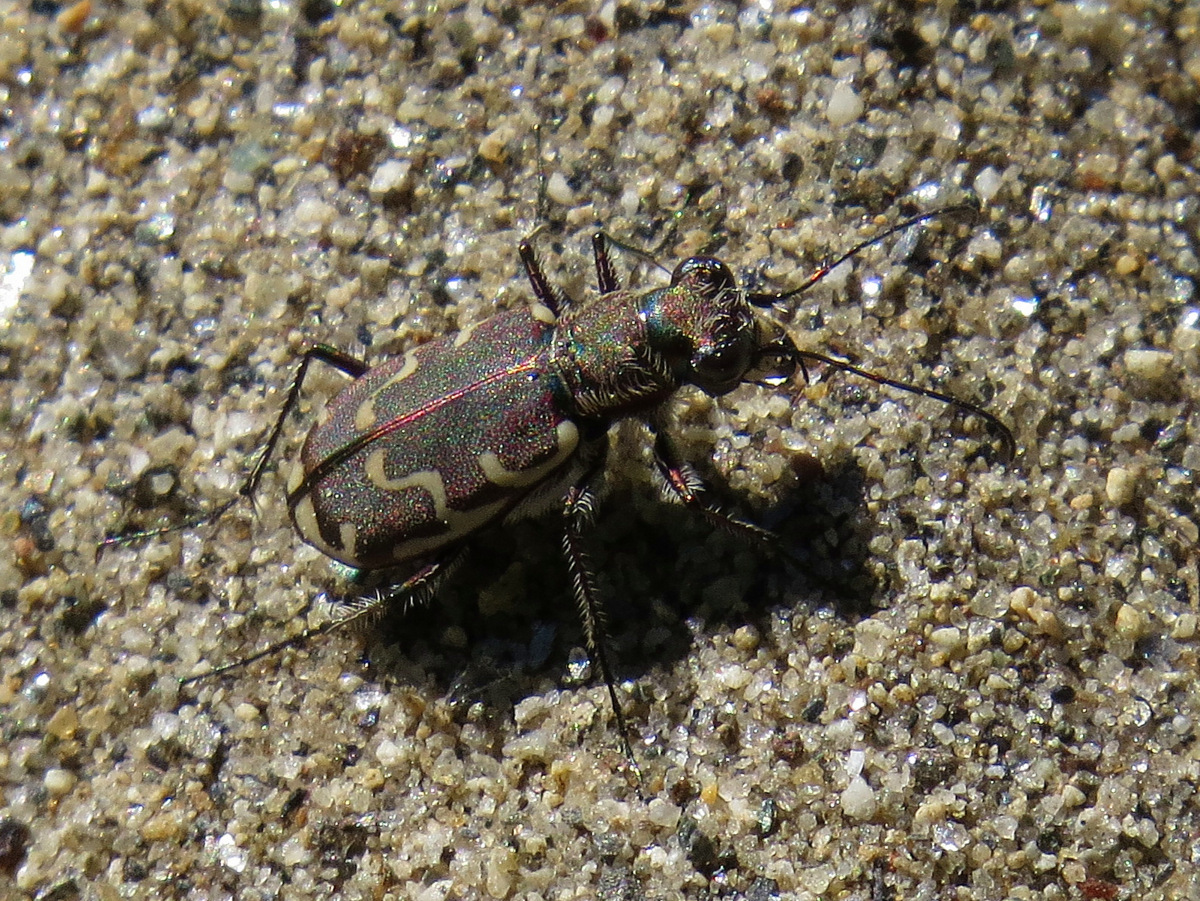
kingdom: Animalia
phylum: Arthropoda
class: Insecta
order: Coleoptera
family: Carabidae
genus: Cicindela
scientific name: Cicindela repanda
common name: Bronzed tiger beetle
